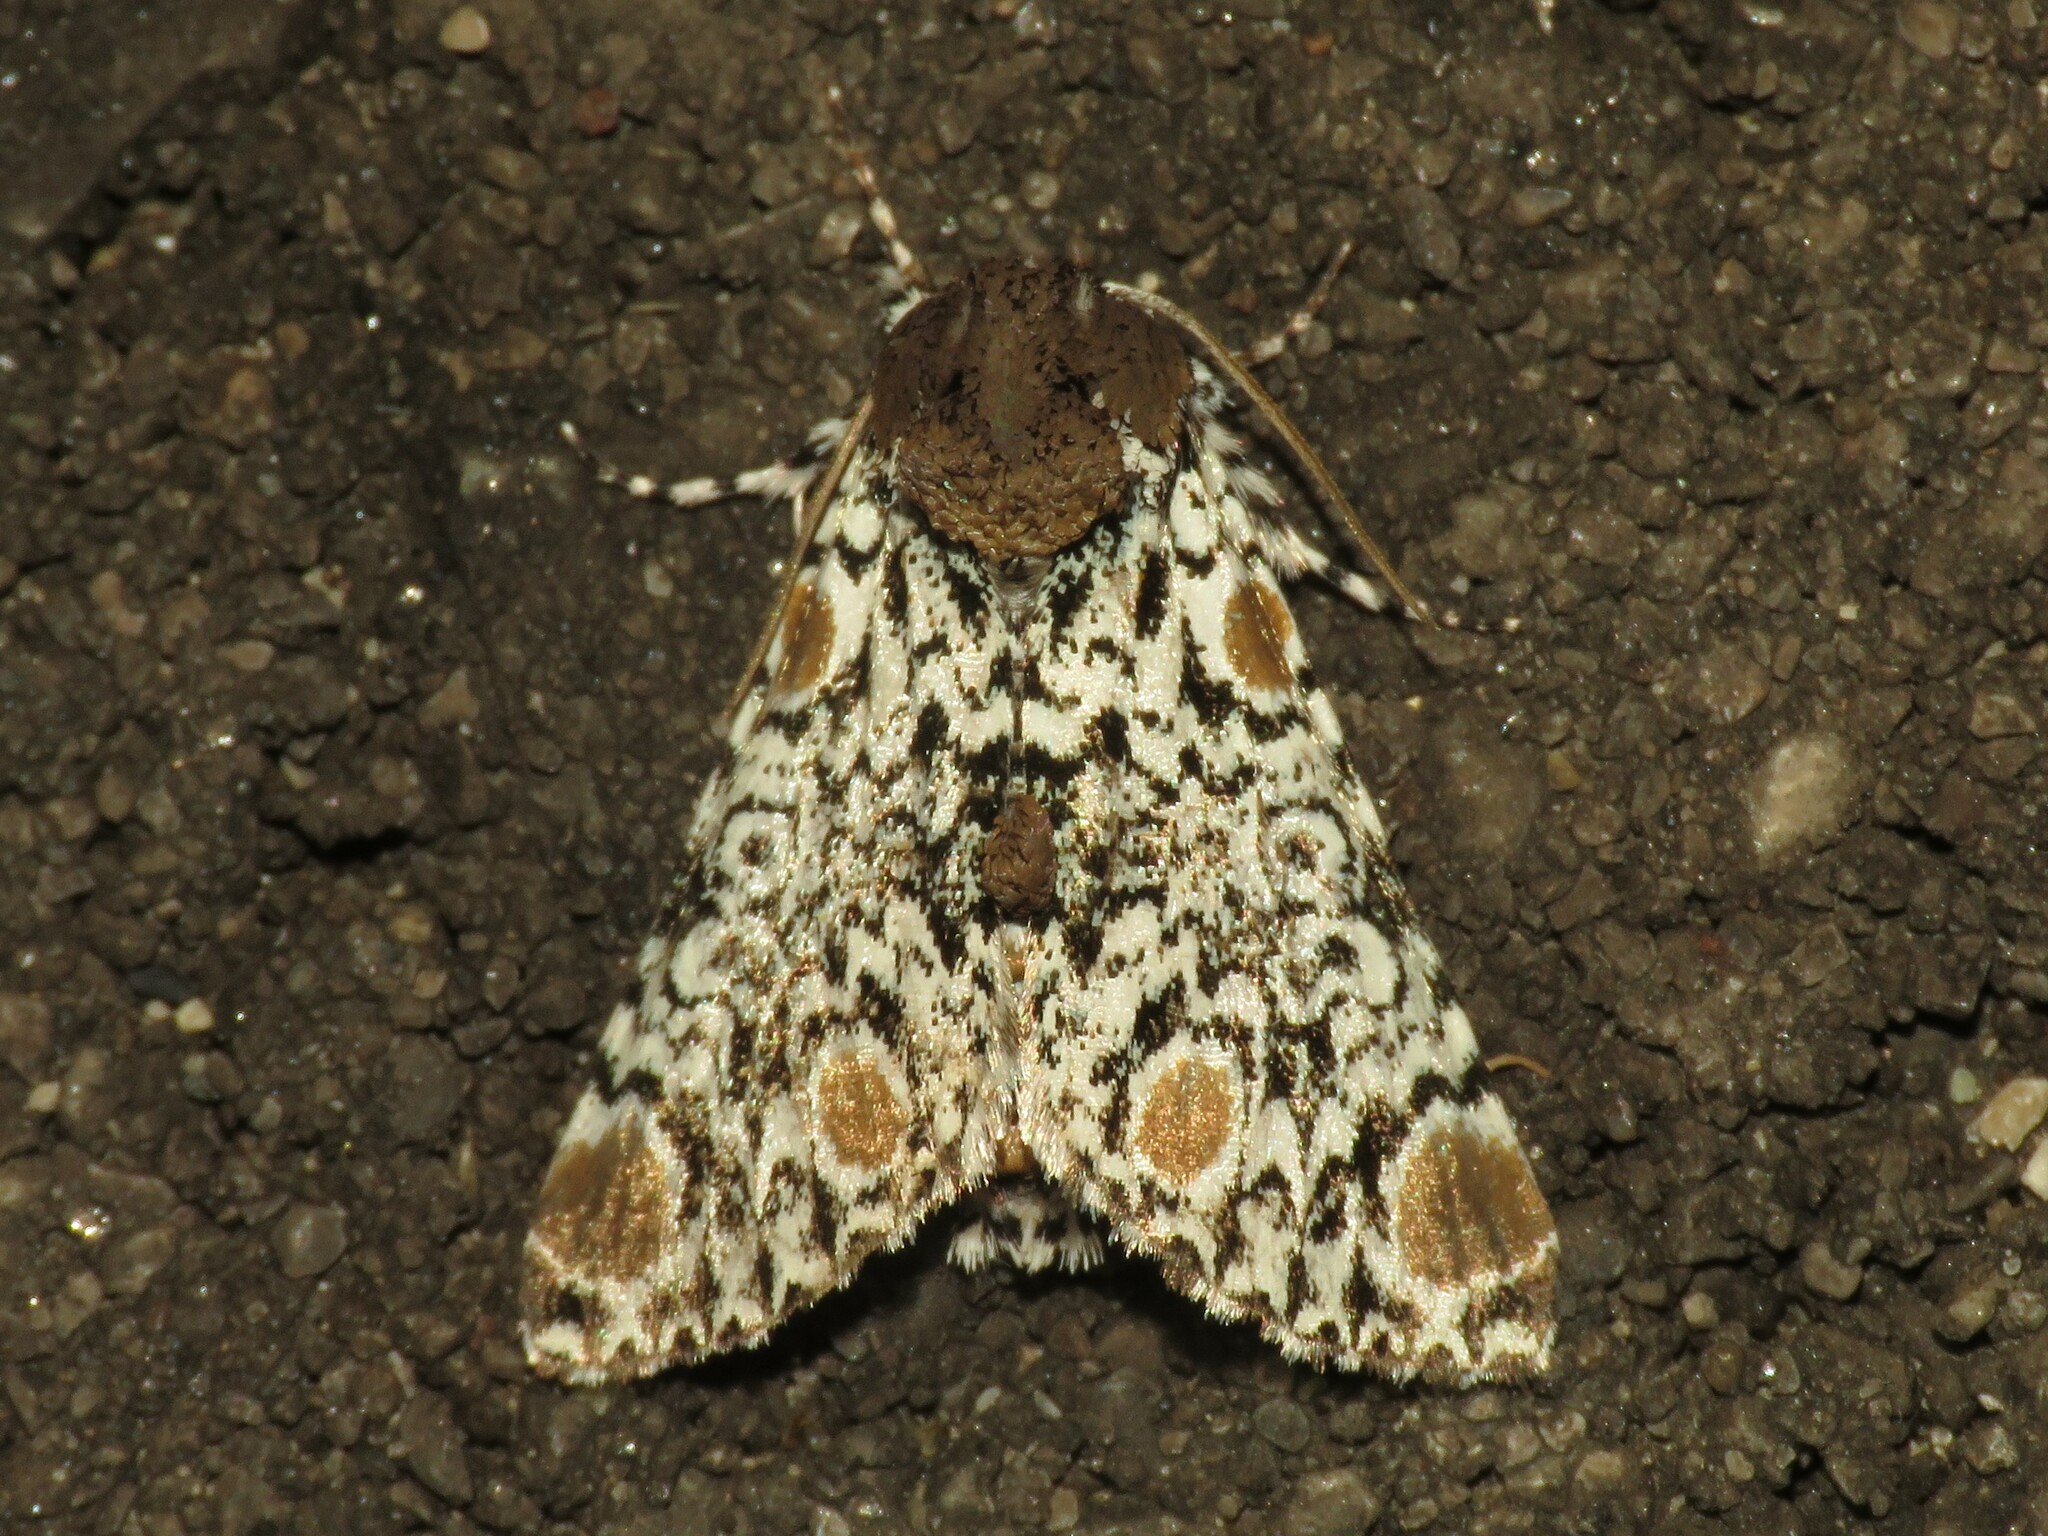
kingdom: Animalia
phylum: Arthropoda
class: Insecta
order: Lepidoptera
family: Noctuidae
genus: Harrisimemna
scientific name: Harrisimemna trisignata
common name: Harris threespot
